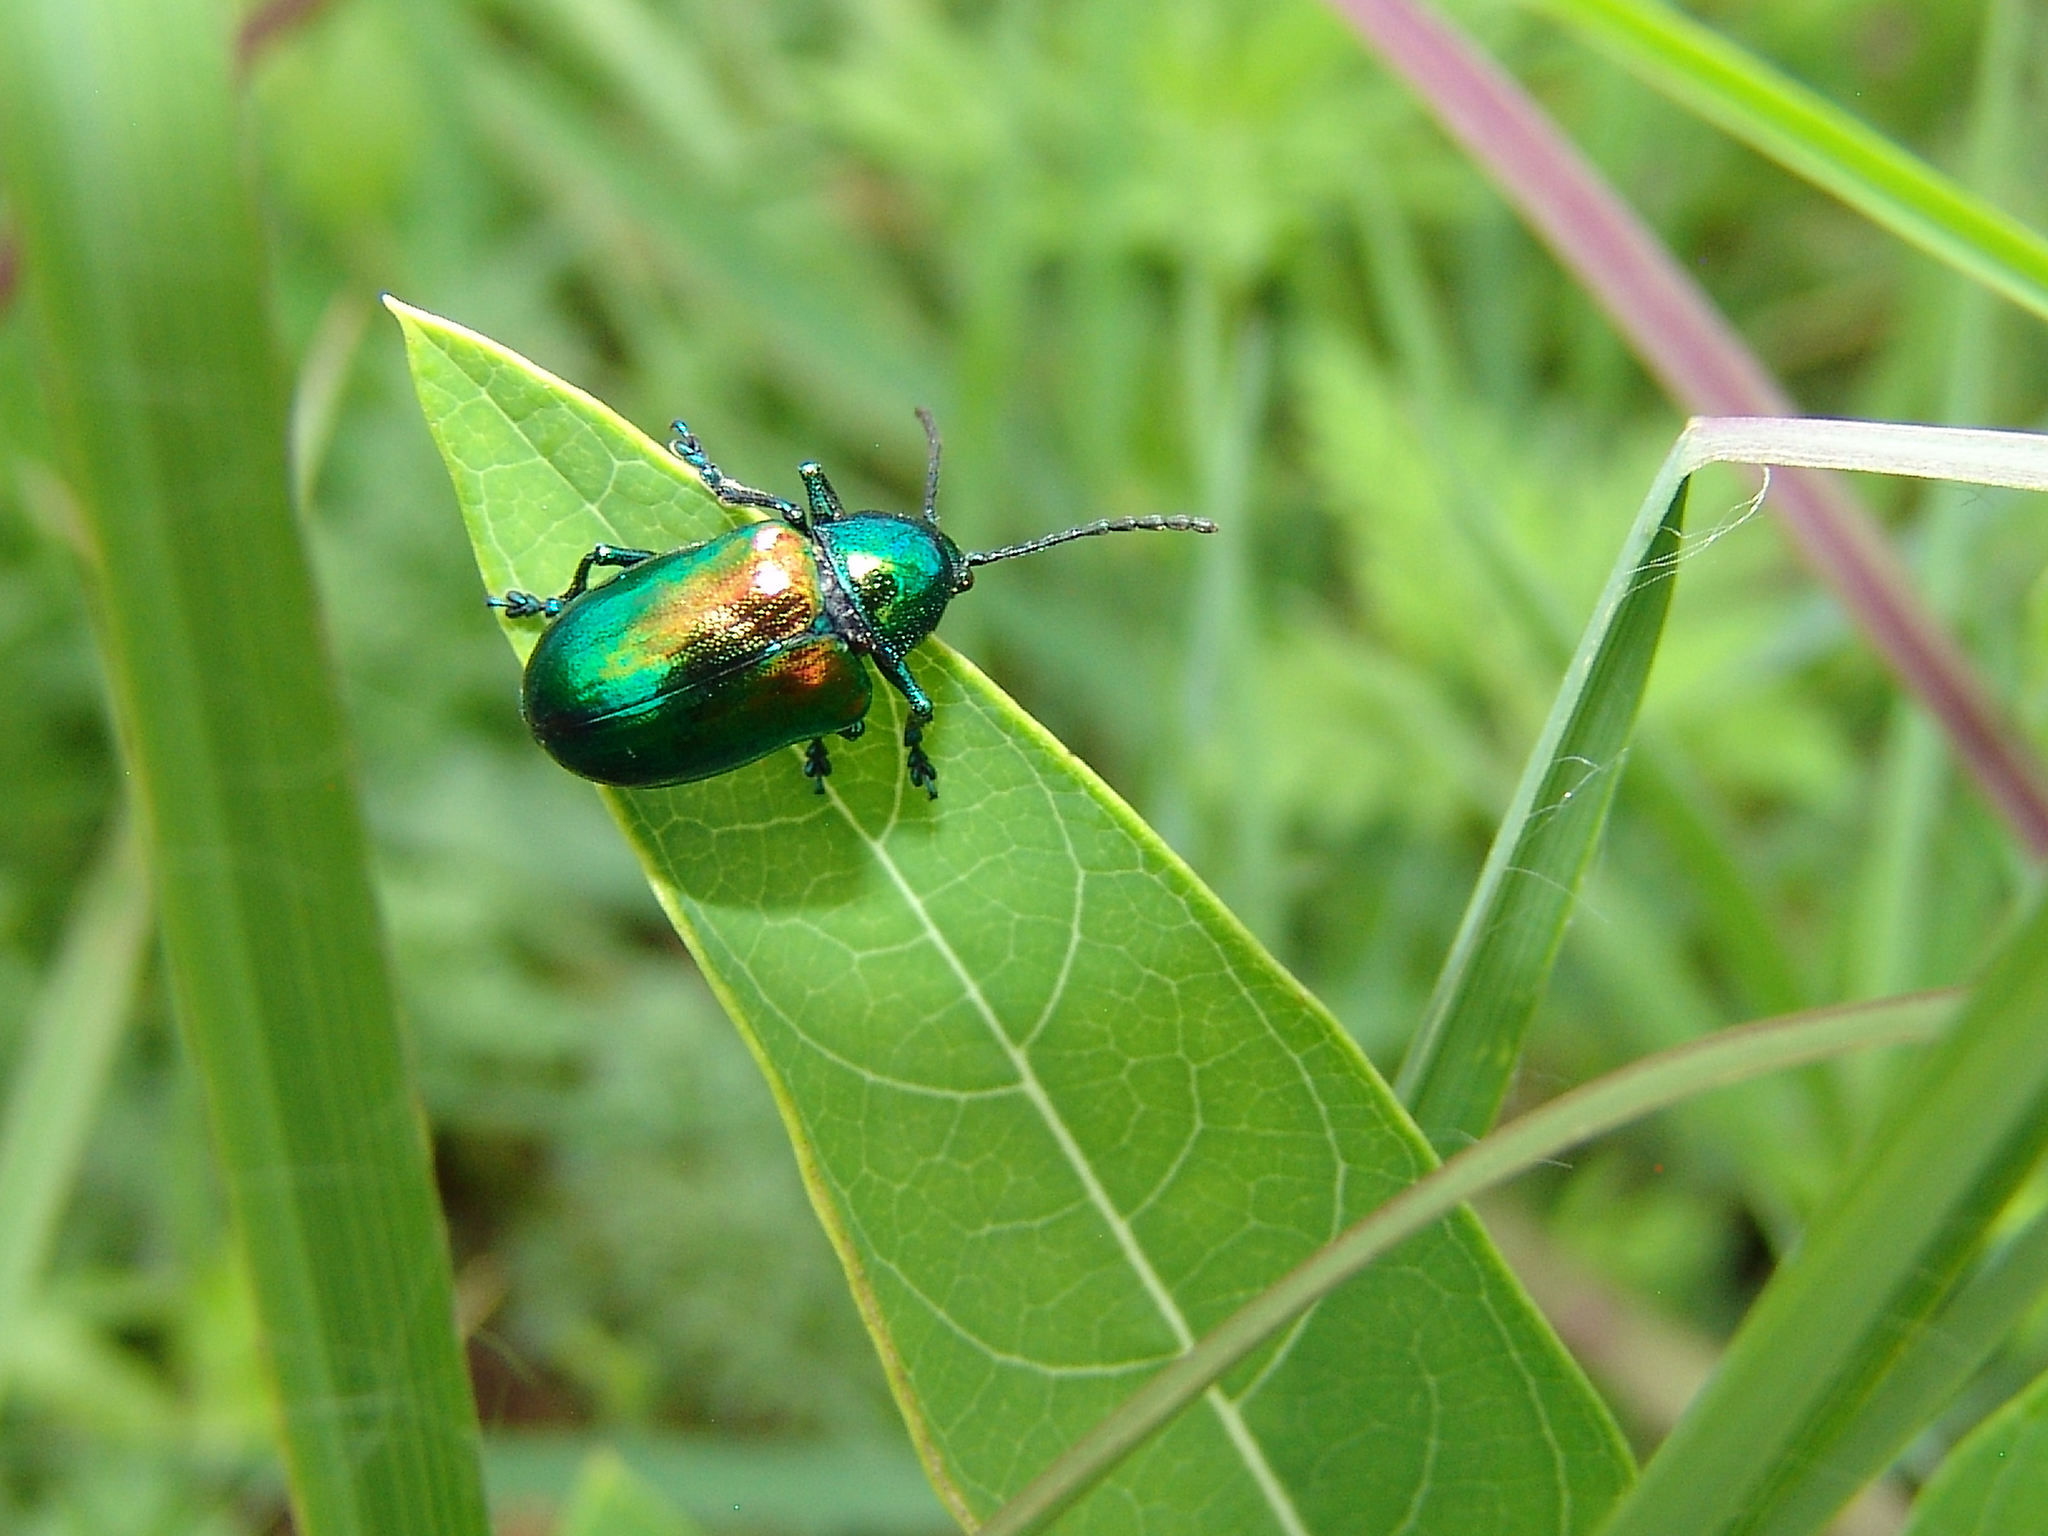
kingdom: Animalia
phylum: Arthropoda
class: Insecta
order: Coleoptera
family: Chrysomelidae
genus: Chrysochus
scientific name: Chrysochus auratus
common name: Dogbane leaf beetle
